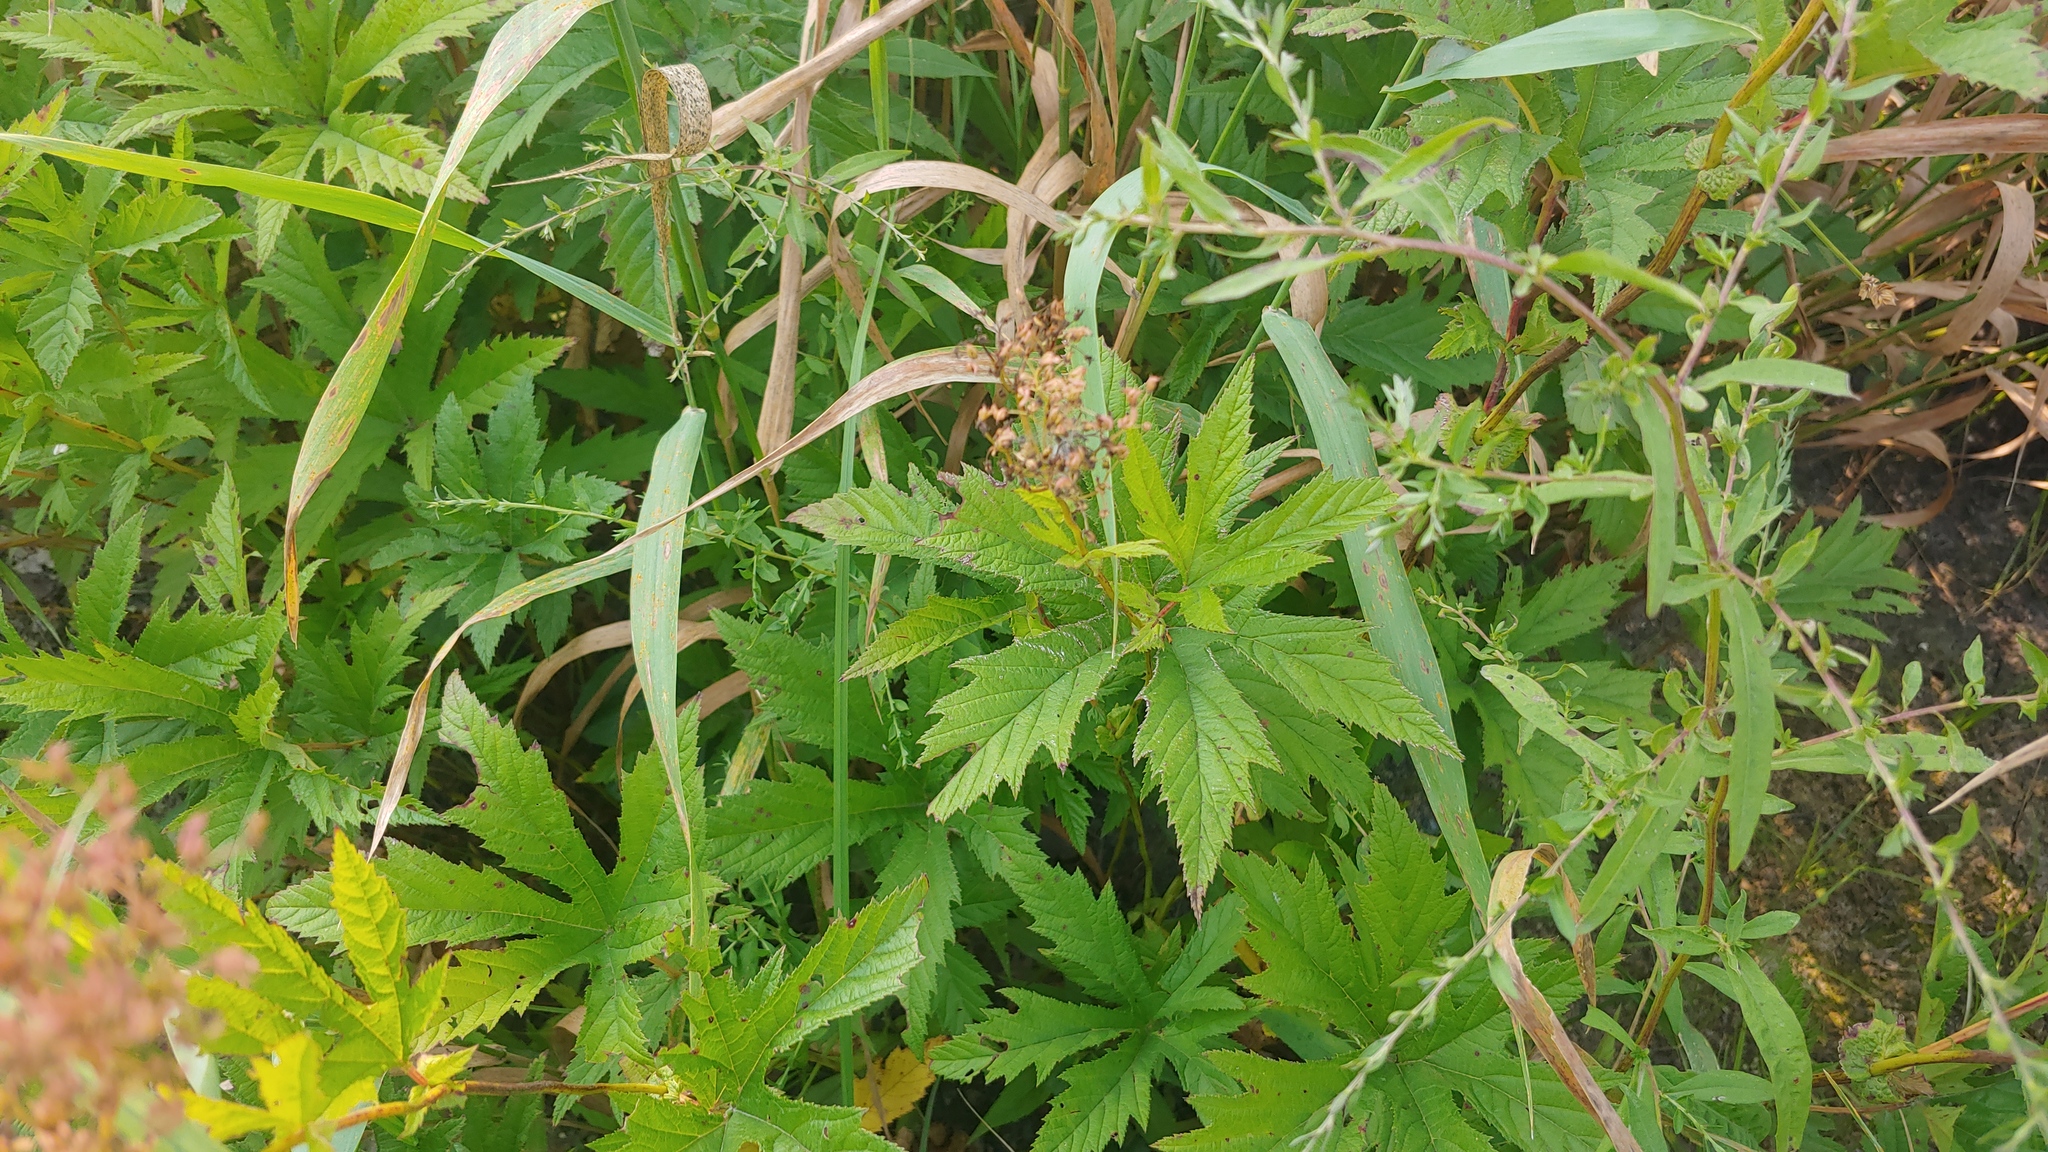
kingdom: Plantae
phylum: Tracheophyta
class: Magnoliopsida
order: Rosales
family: Rosaceae
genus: Filipendula
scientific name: Filipendula rubra
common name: Queen-of-the-prairie
